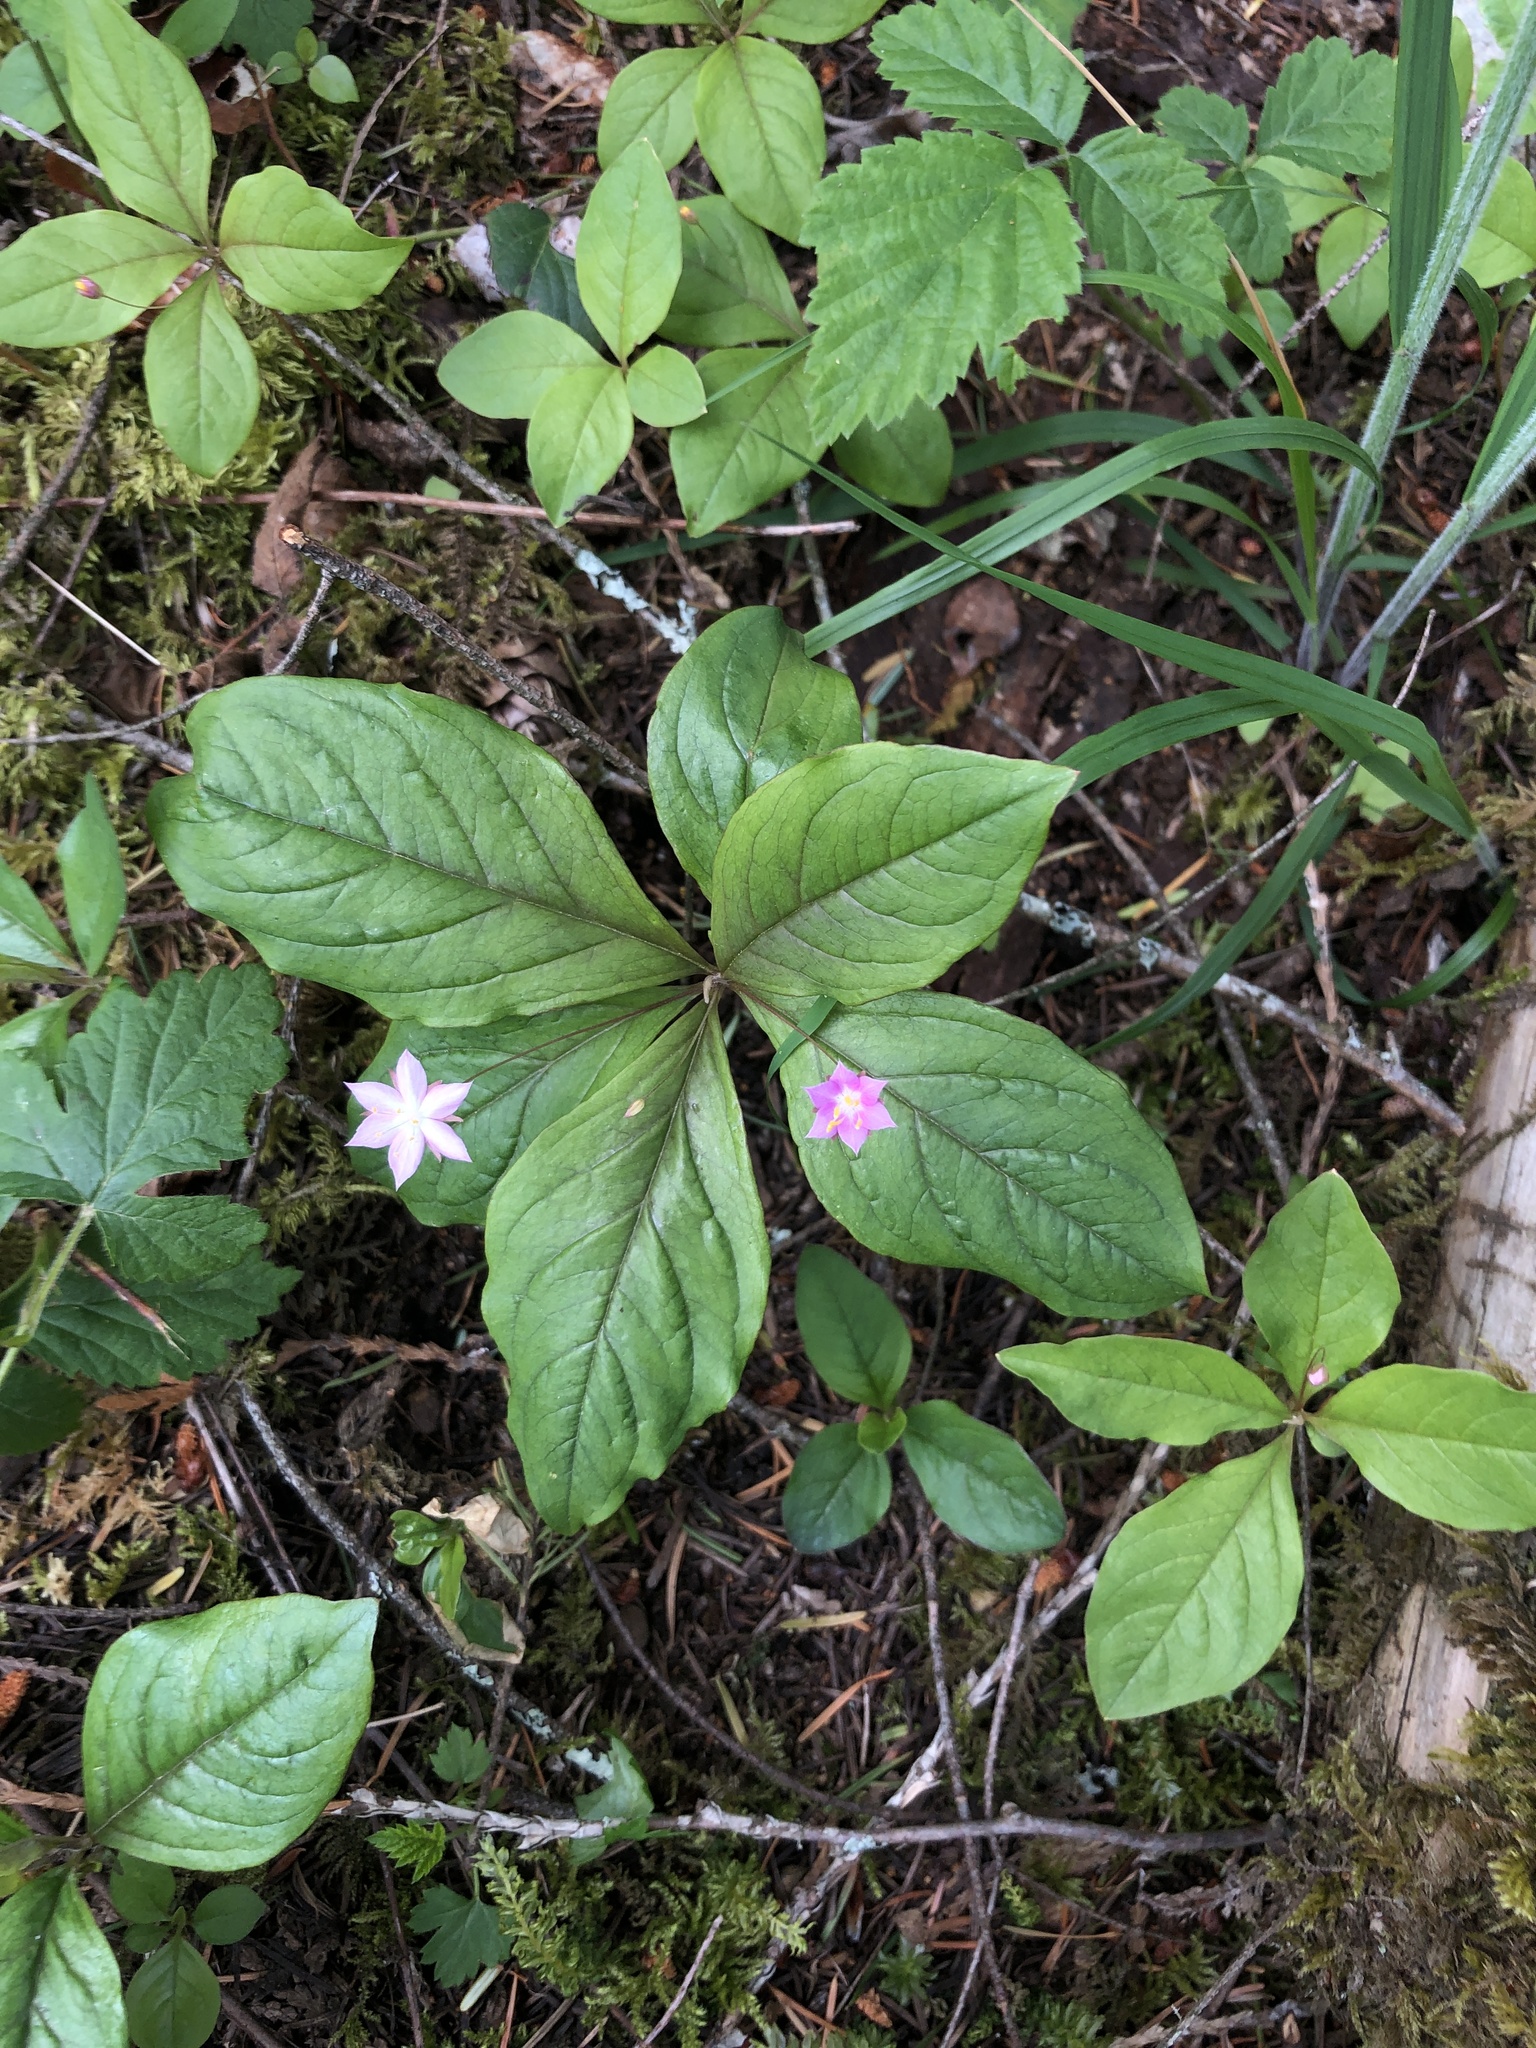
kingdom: Plantae
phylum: Tracheophyta
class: Magnoliopsida
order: Ericales
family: Primulaceae
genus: Lysimachia
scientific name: Lysimachia latifolia
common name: Pacific starflower
